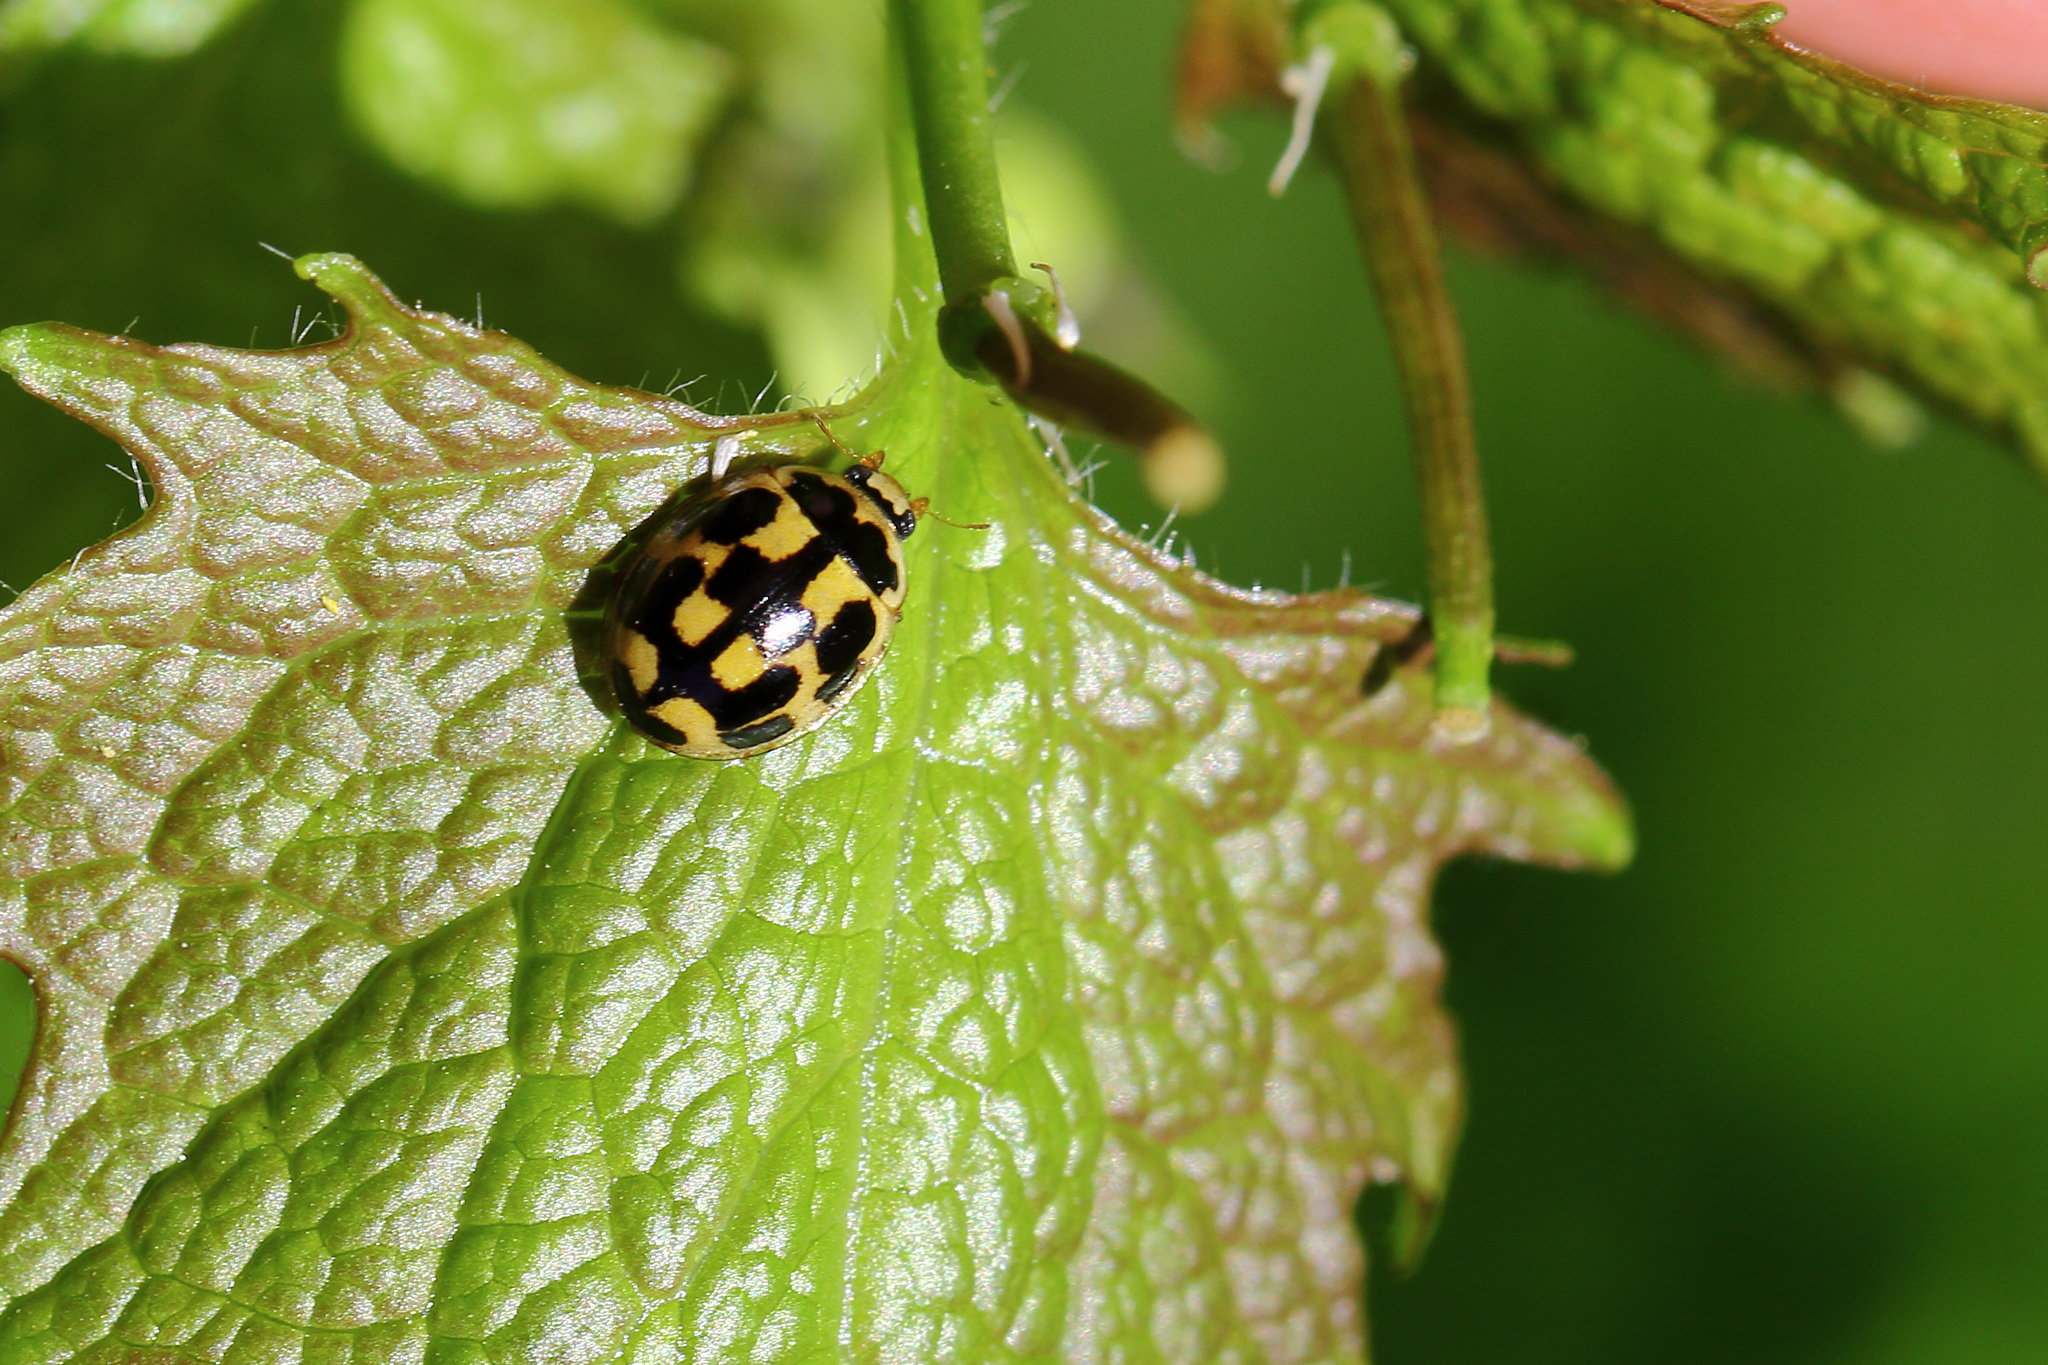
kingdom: Animalia
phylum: Arthropoda
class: Insecta
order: Coleoptera
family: Coccinellidae
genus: Propylaea
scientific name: Propylaea quatuordecimpunctata
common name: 14-spotted ladybird beetle
